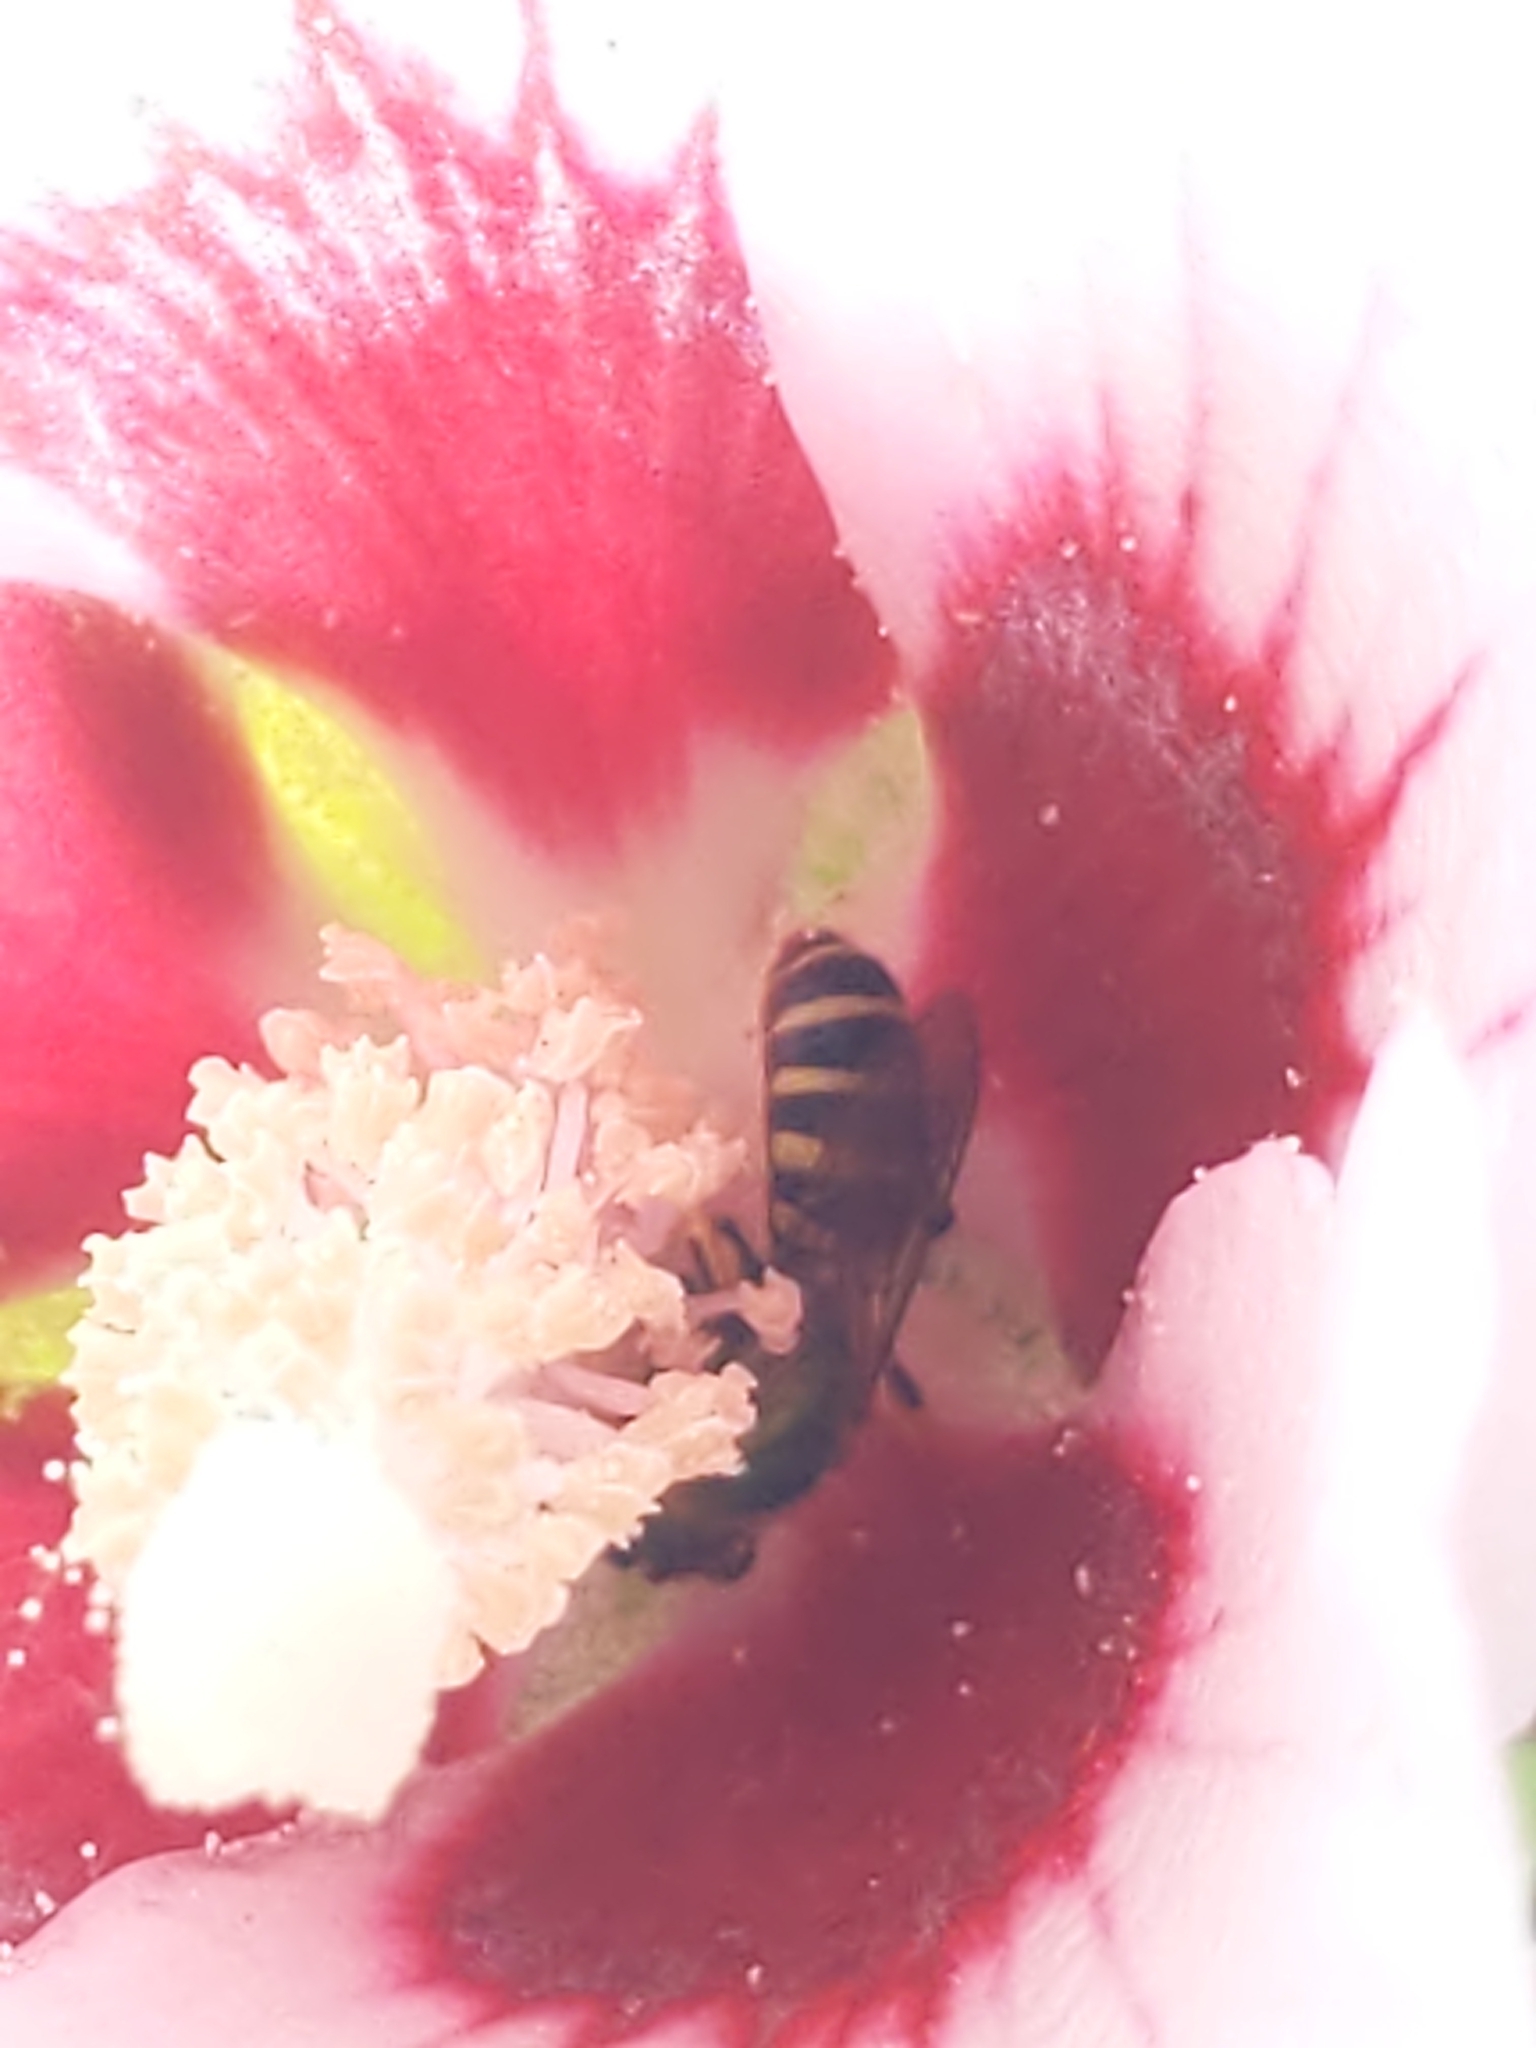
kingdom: Animalia
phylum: Arthropoda
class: Insecta
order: Hymenoptera
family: Halictidae
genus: Agapostemon
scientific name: Agapostemon
